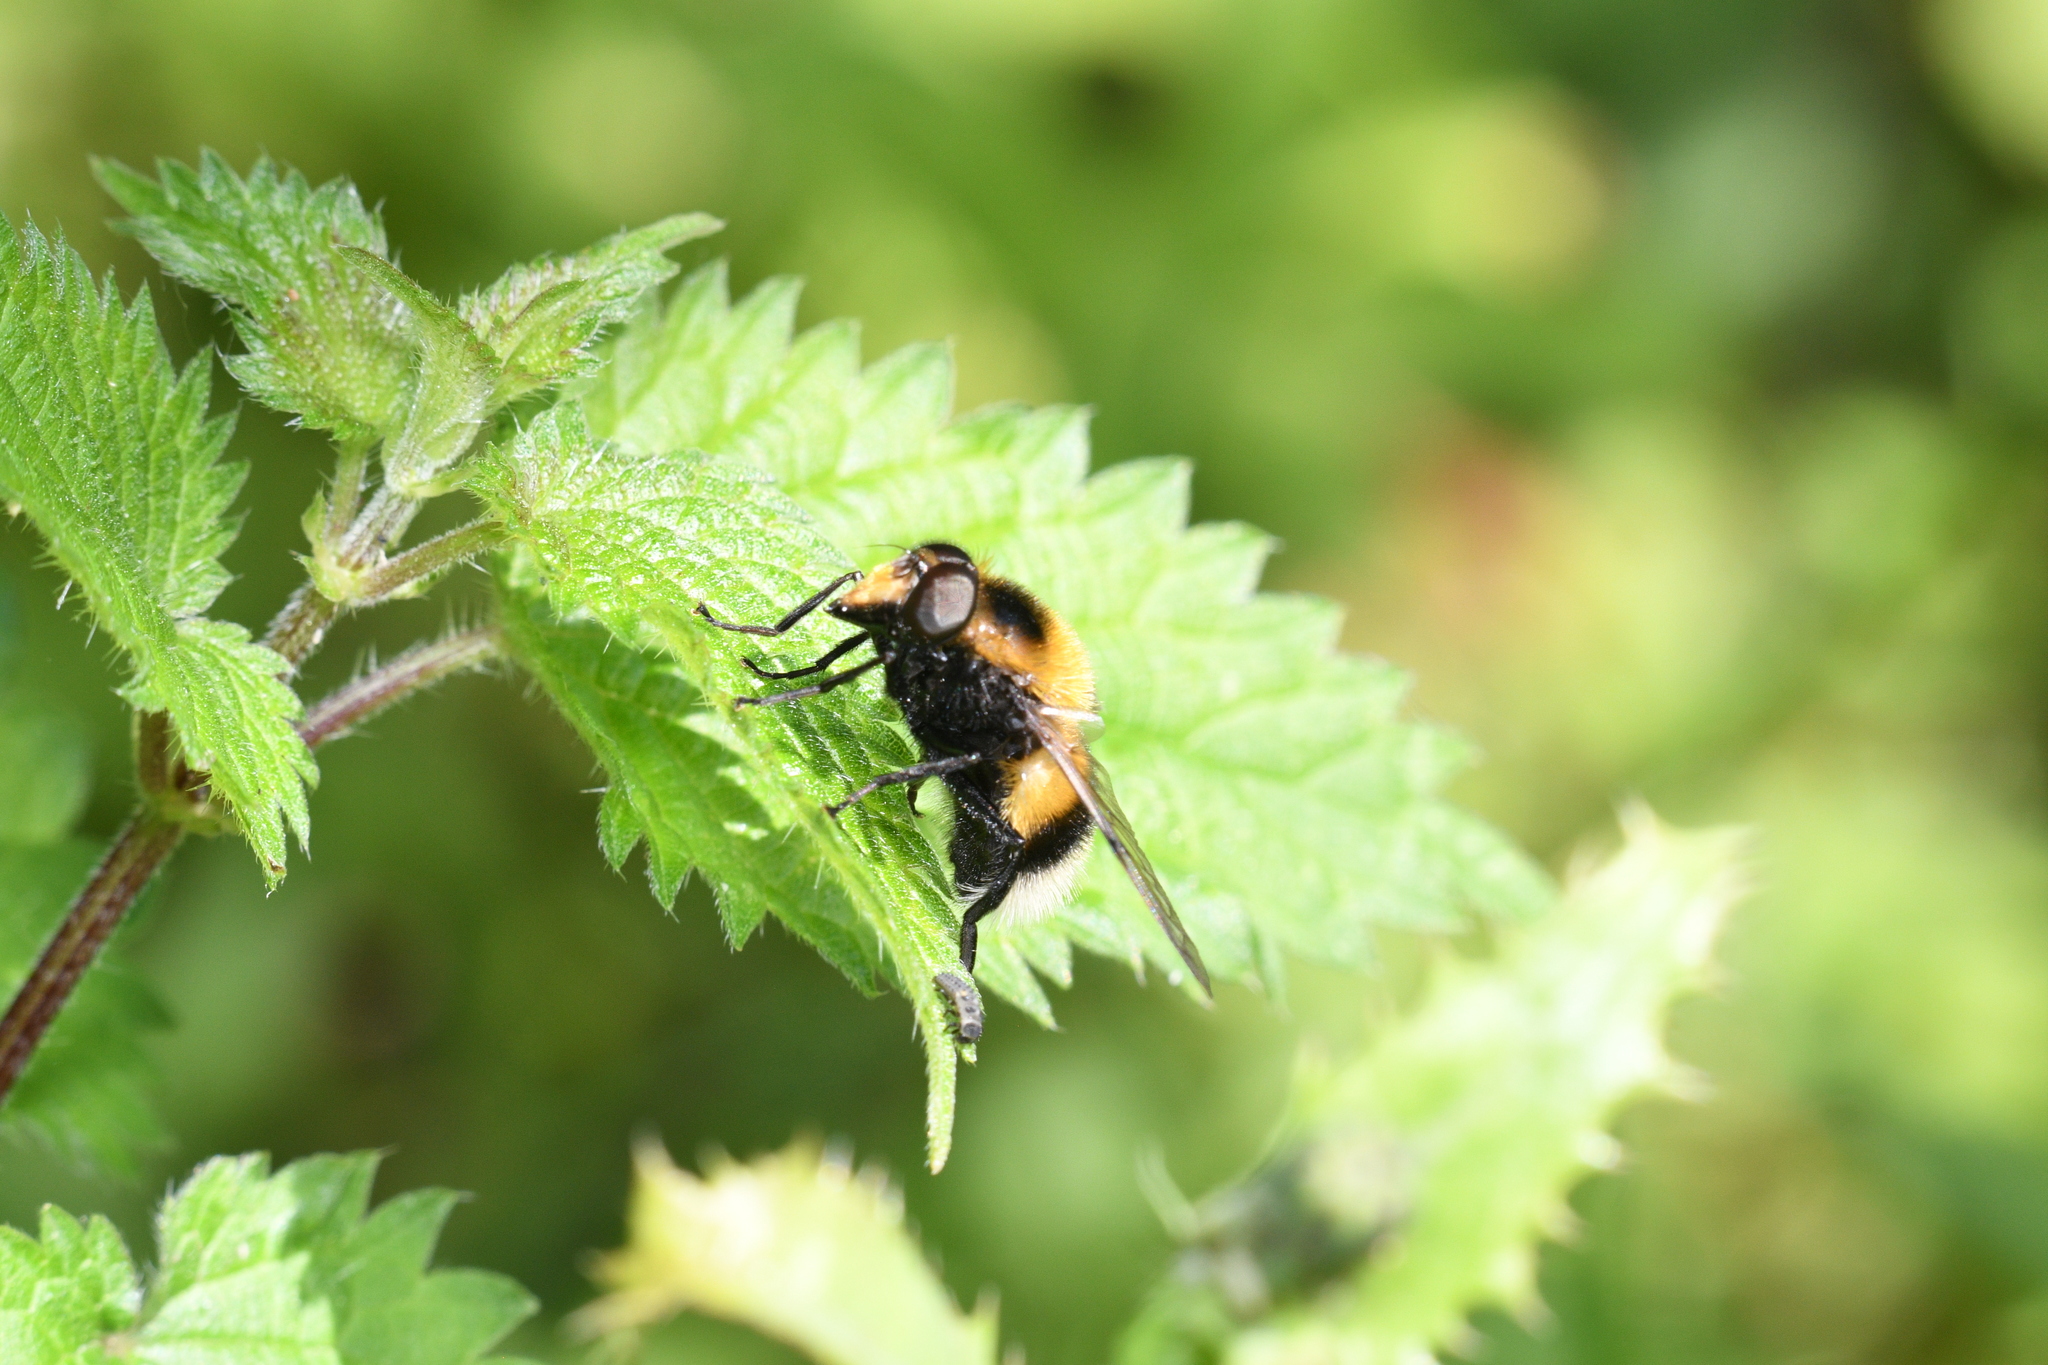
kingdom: Animalia
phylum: Arthropoda
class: Insecta
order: Diptera
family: Syrphidae
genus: Volucella
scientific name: Volucella bombylans
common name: Bumble bee hover fly
